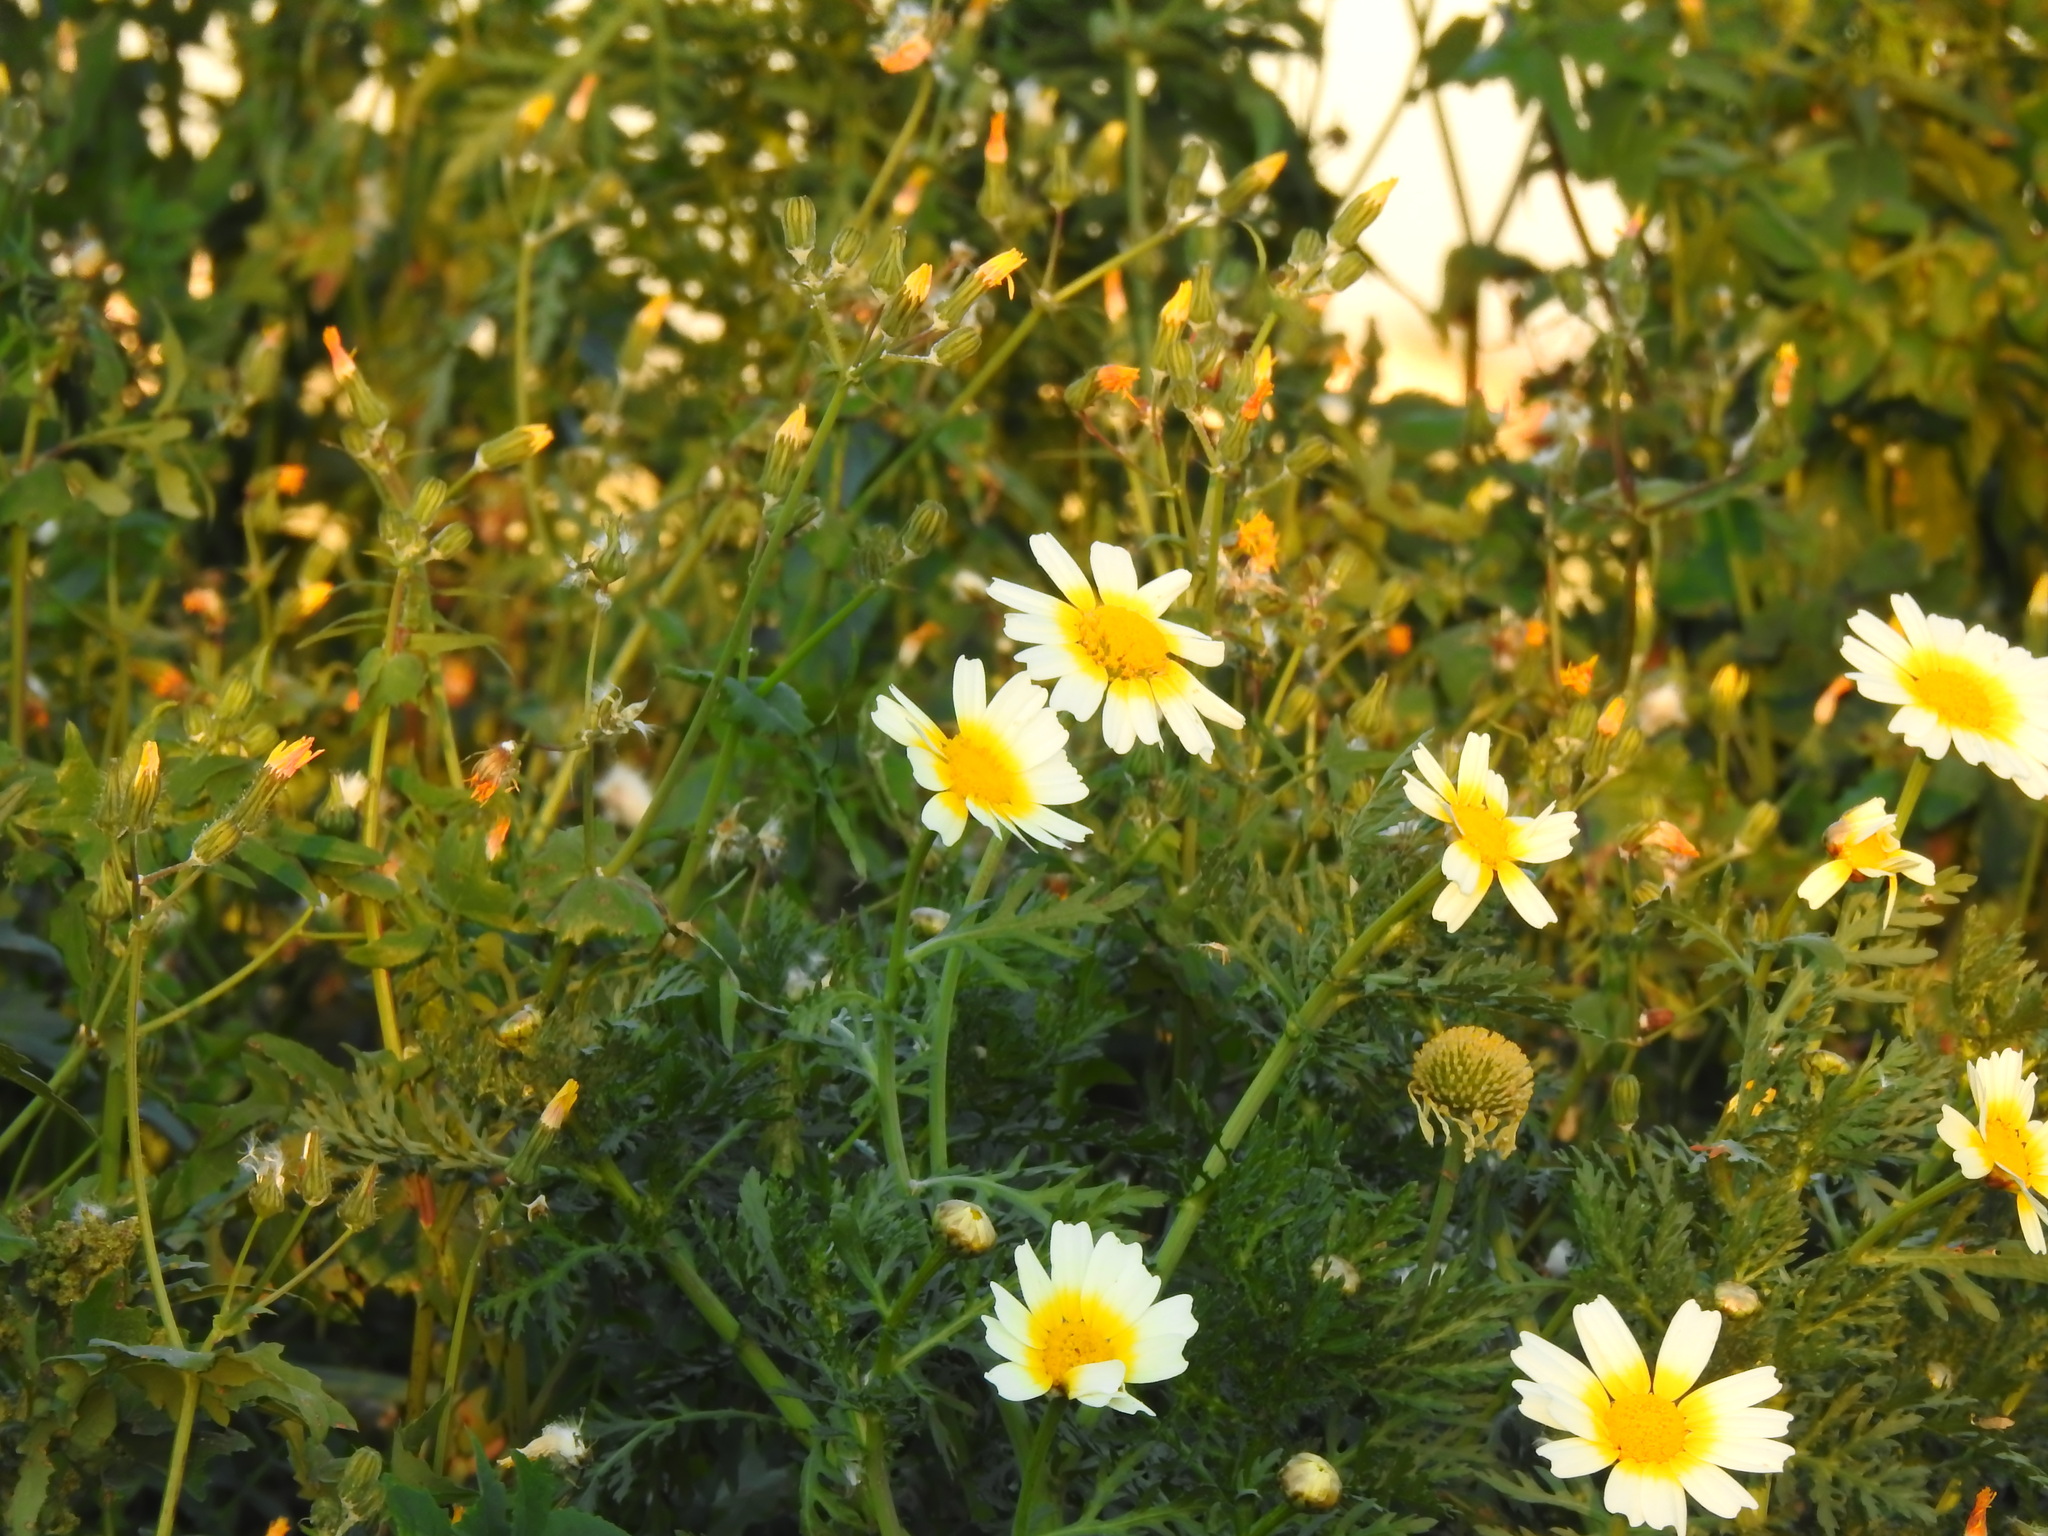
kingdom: Plantae
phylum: Tracheophyta
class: Magnoliopsida
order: Asterales
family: Asteraceae
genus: Glebionis
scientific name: Glebionis coronaria
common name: Crowndaisy
